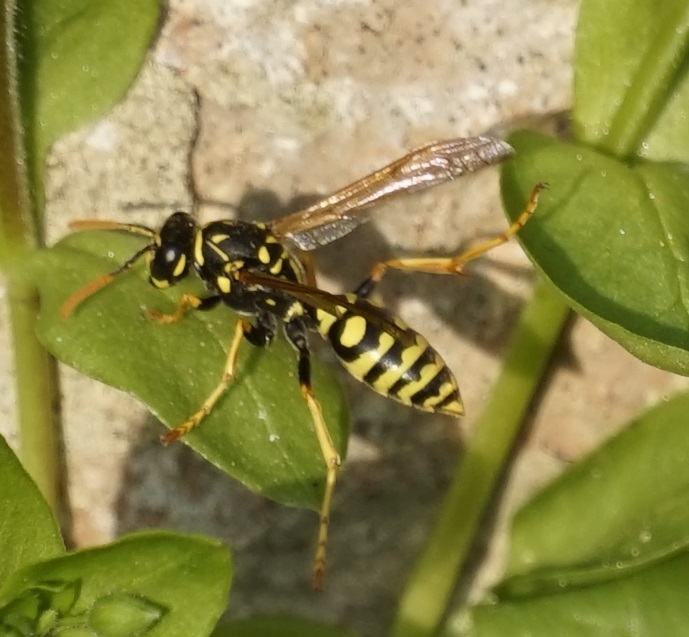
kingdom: Animalia
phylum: Arthropoda
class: Insecta
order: Hymenoptera
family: Eumenidae
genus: Polistes
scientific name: Polistes dominula
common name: Paper wasp
